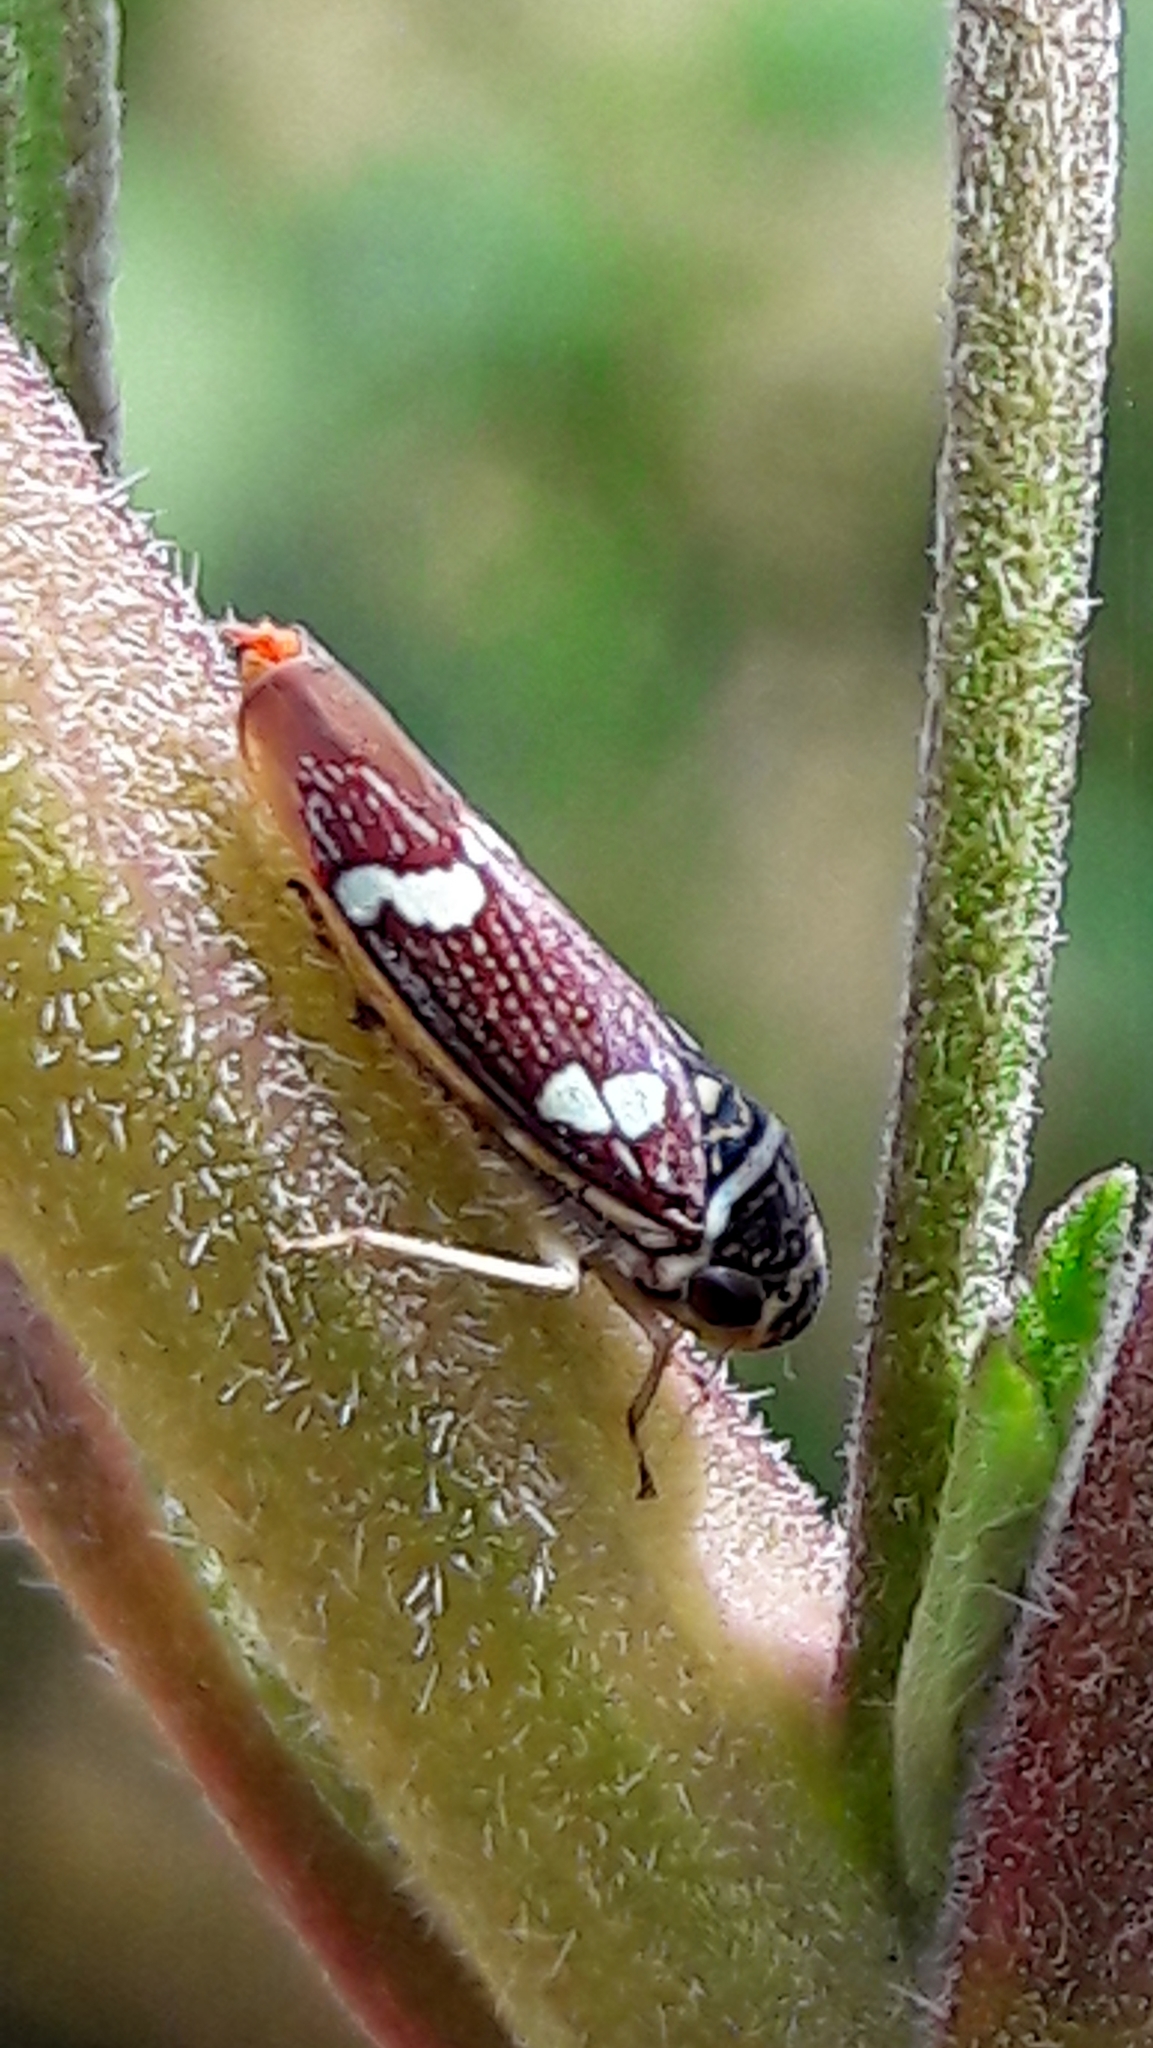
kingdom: Animalia
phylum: Arthropoda
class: Insecta
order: Hemiptera
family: Cicadellidae
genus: Macugonalia
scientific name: Macugonalia leucomelas
